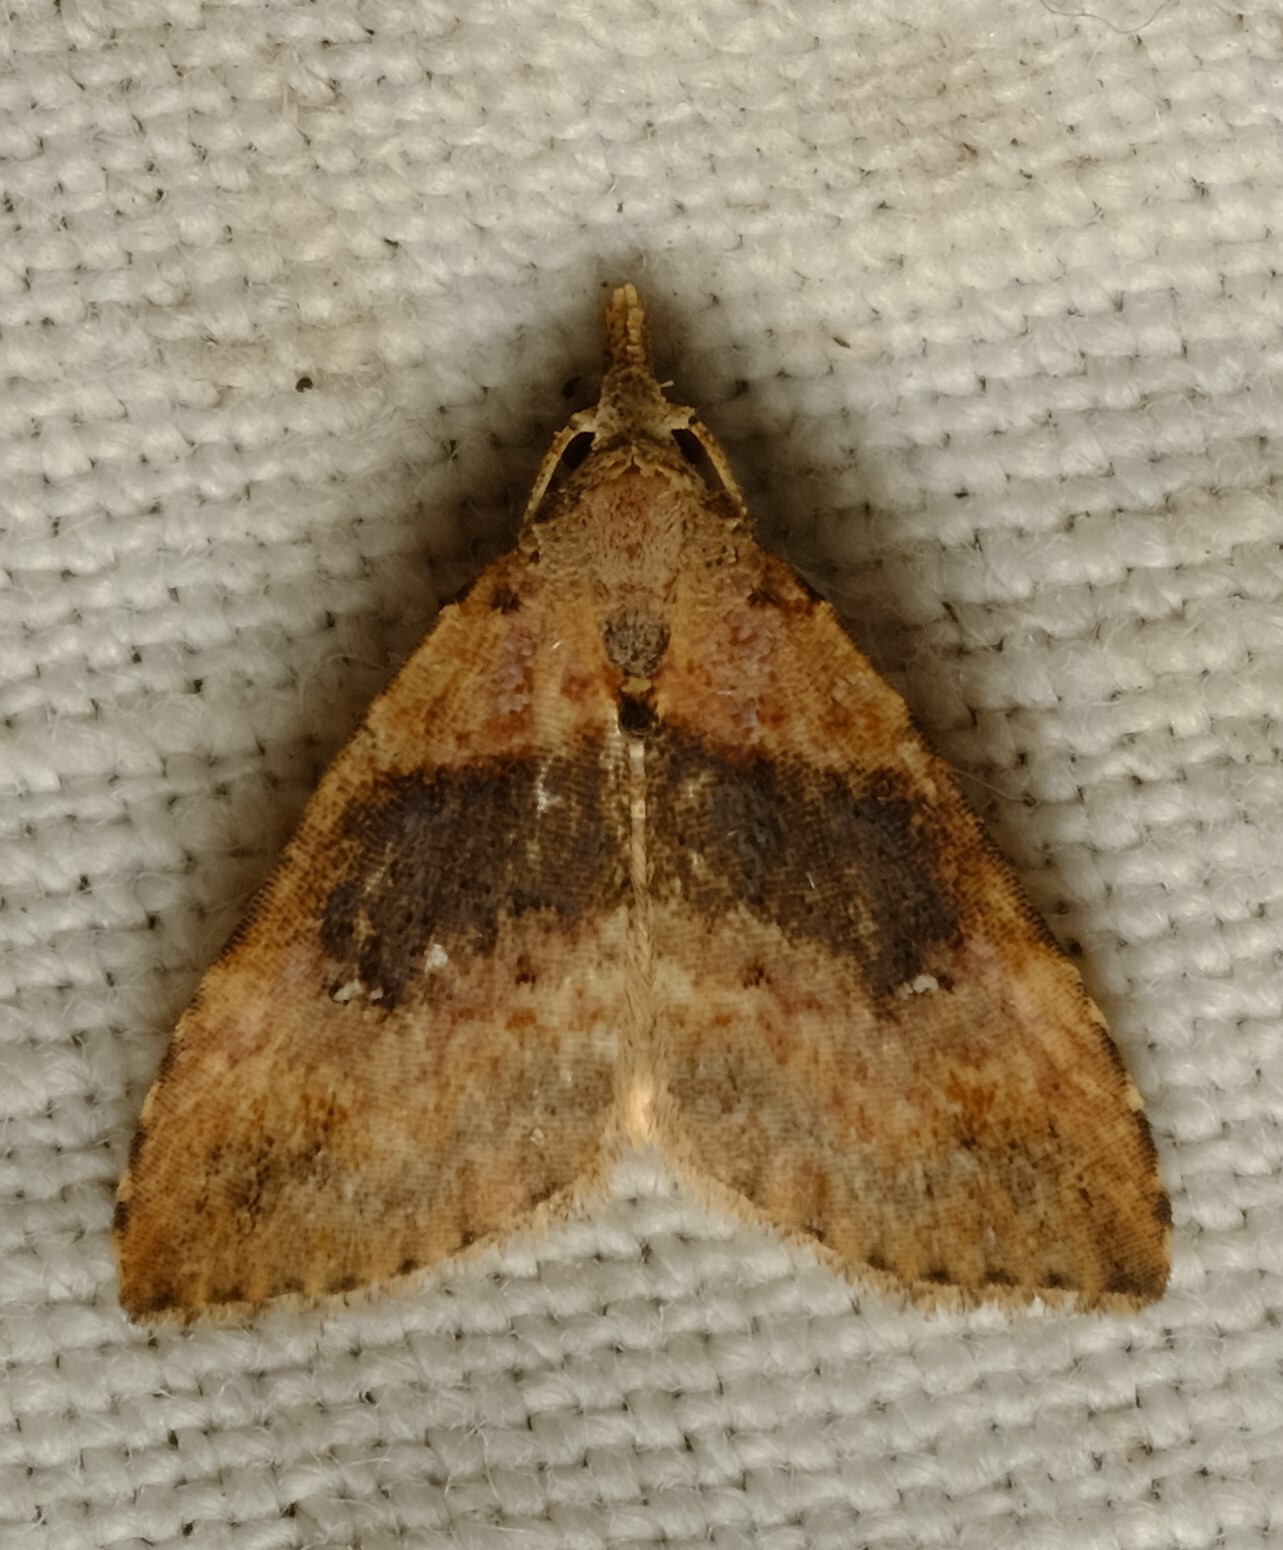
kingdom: Animalia
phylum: Arthropoda
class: Insecta
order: Lepidoptera
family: Erebidae
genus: Alapadna
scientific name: Alapadna pauropis
